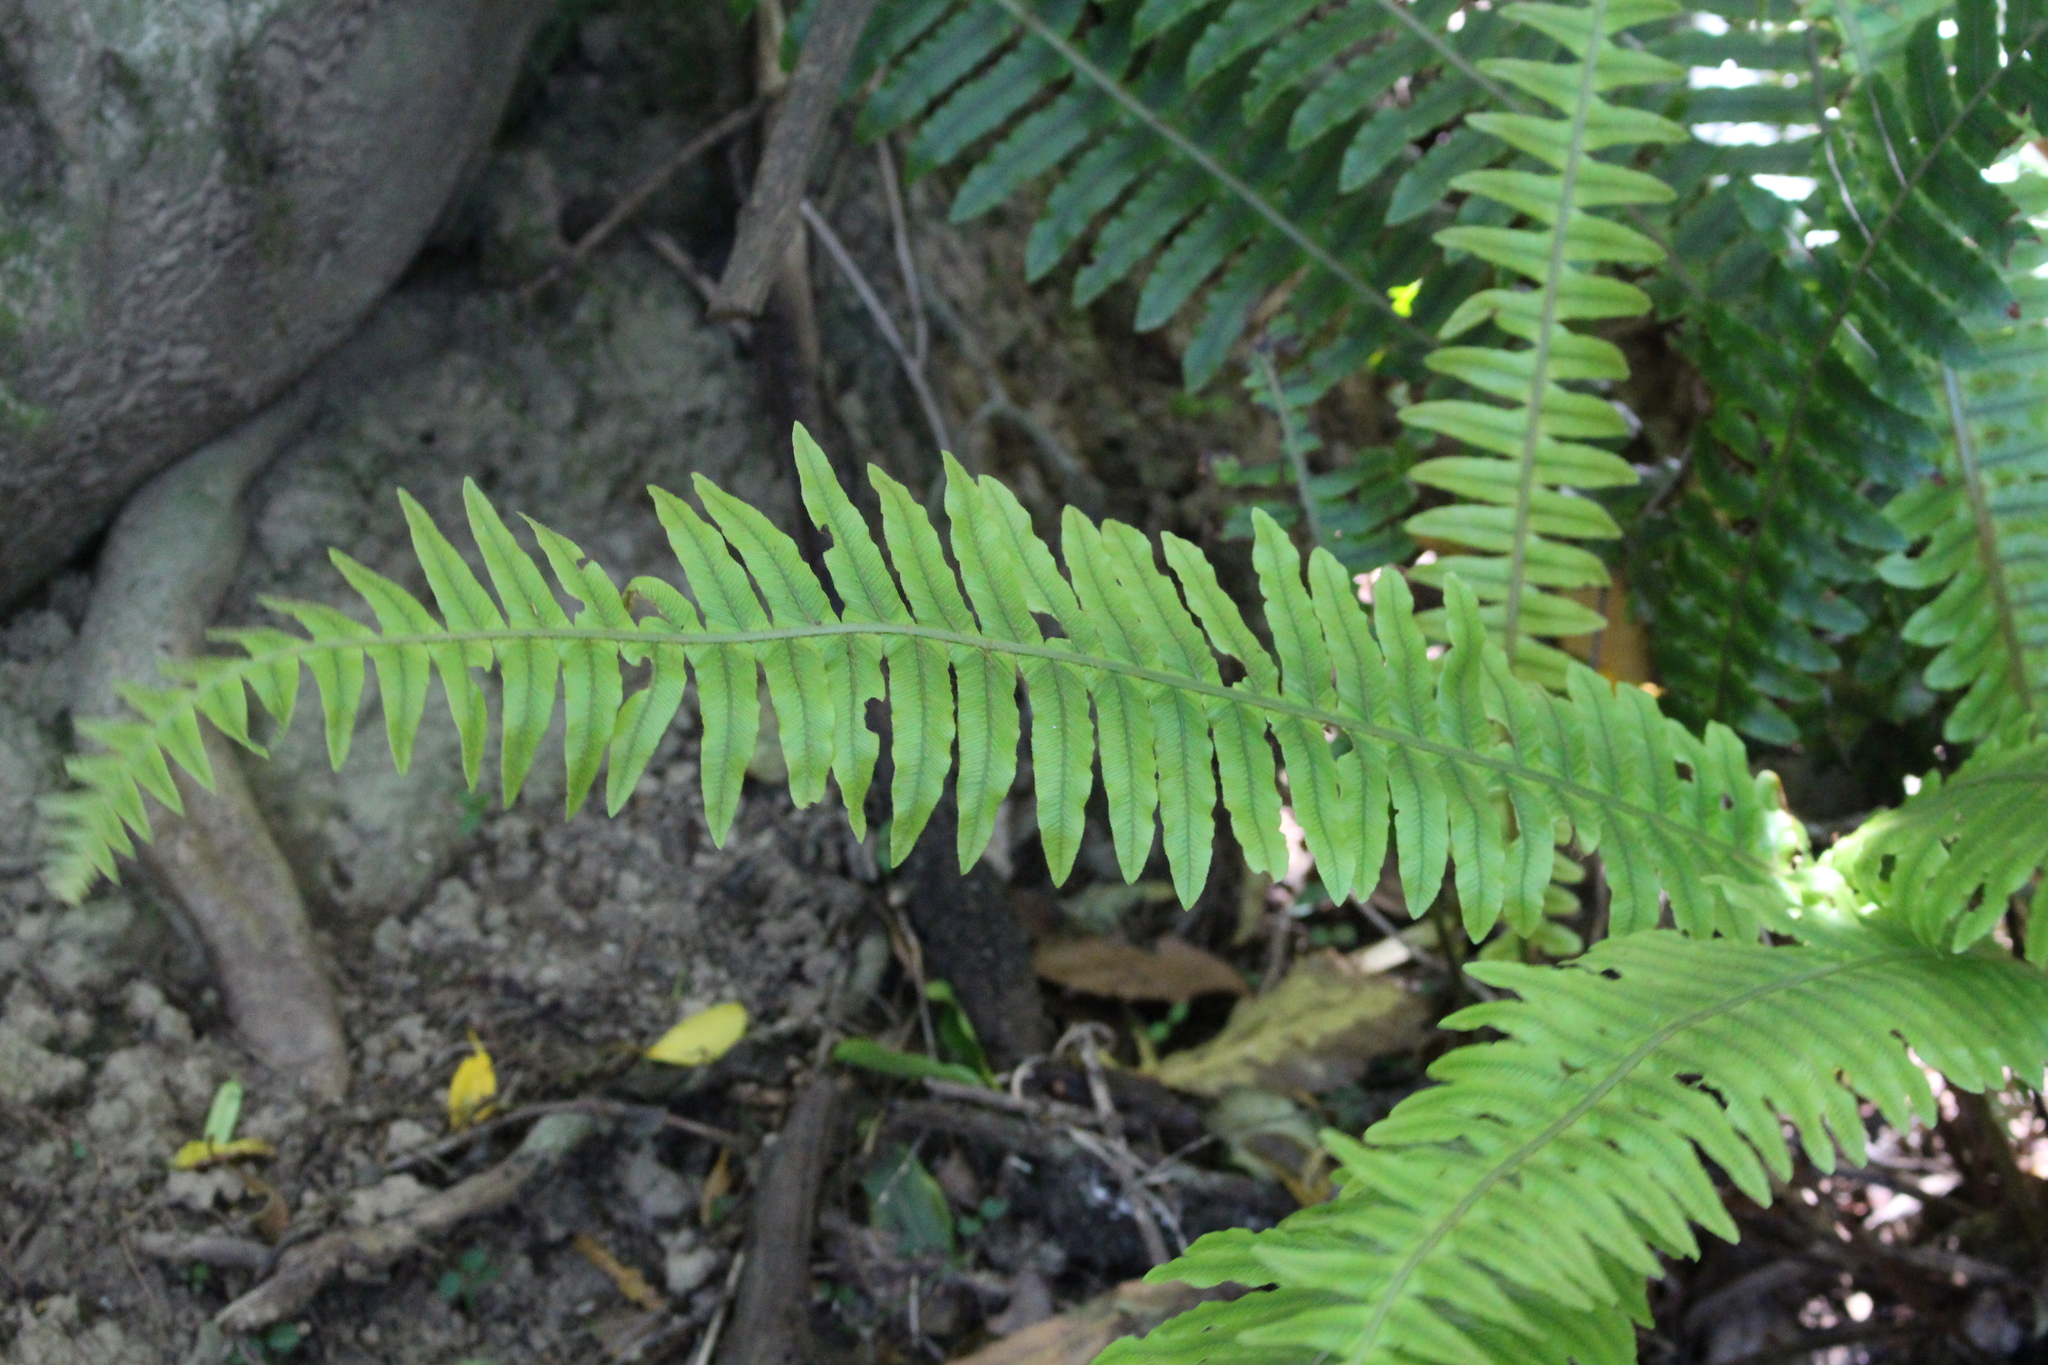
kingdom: Plantae
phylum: Tracheophyta
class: Polypodiopsida
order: Polypodiales
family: Blechnaceae
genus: Lomaria
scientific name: Lomaria discolor
